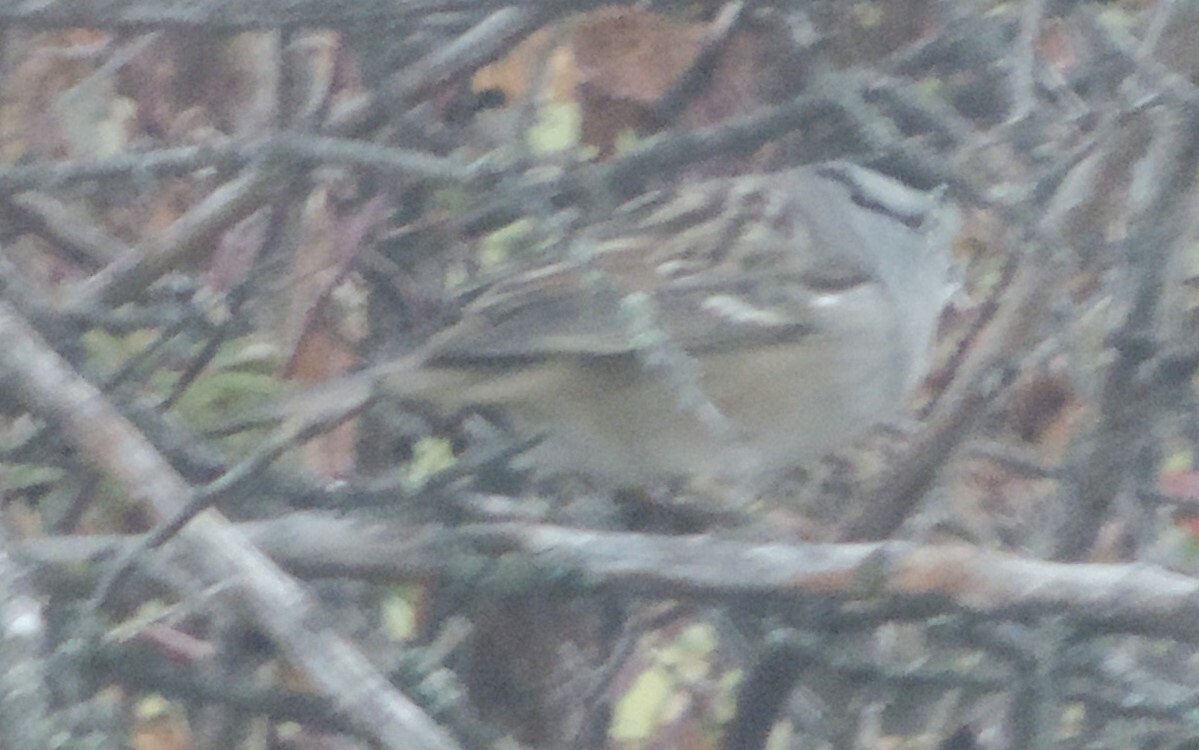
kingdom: Animalia
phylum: Chordata
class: Aves
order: Passeriformes
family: Passerellidae
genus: Zonotrichia
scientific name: Zonotrichia leucophrys
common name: White-crowned sparrow
